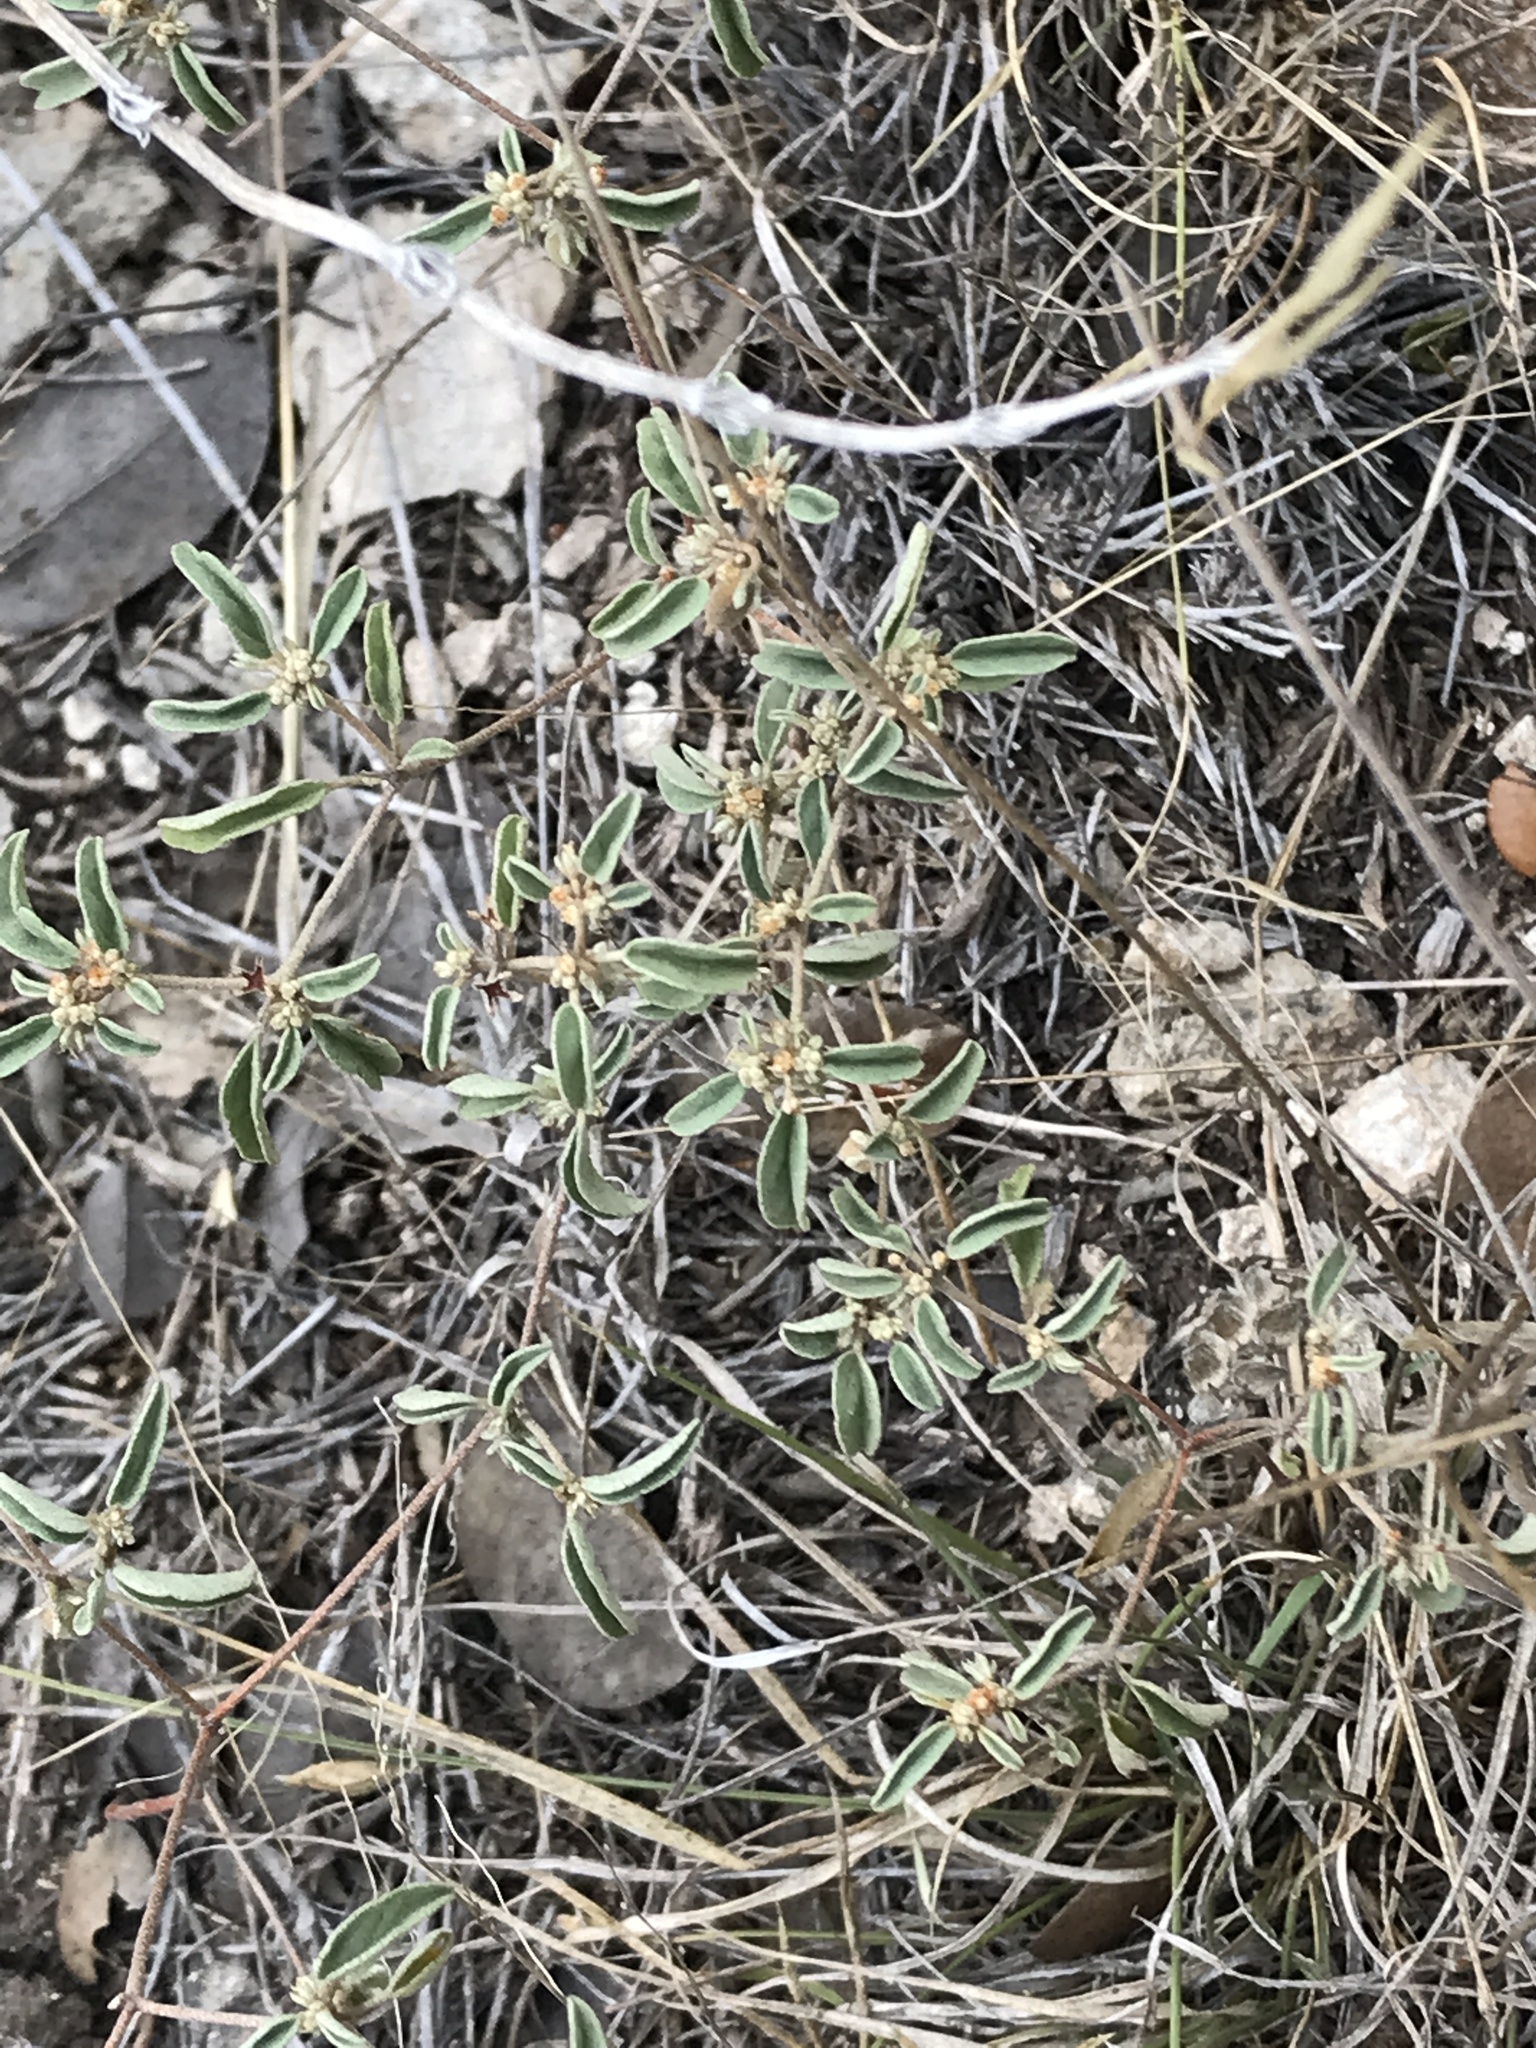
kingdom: Plantae
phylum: Tracheophyta
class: Magnoliopsida
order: Malpighiales
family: Euphorbiaceae
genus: Croton
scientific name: Croton monanthogynus
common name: One-seed croton
